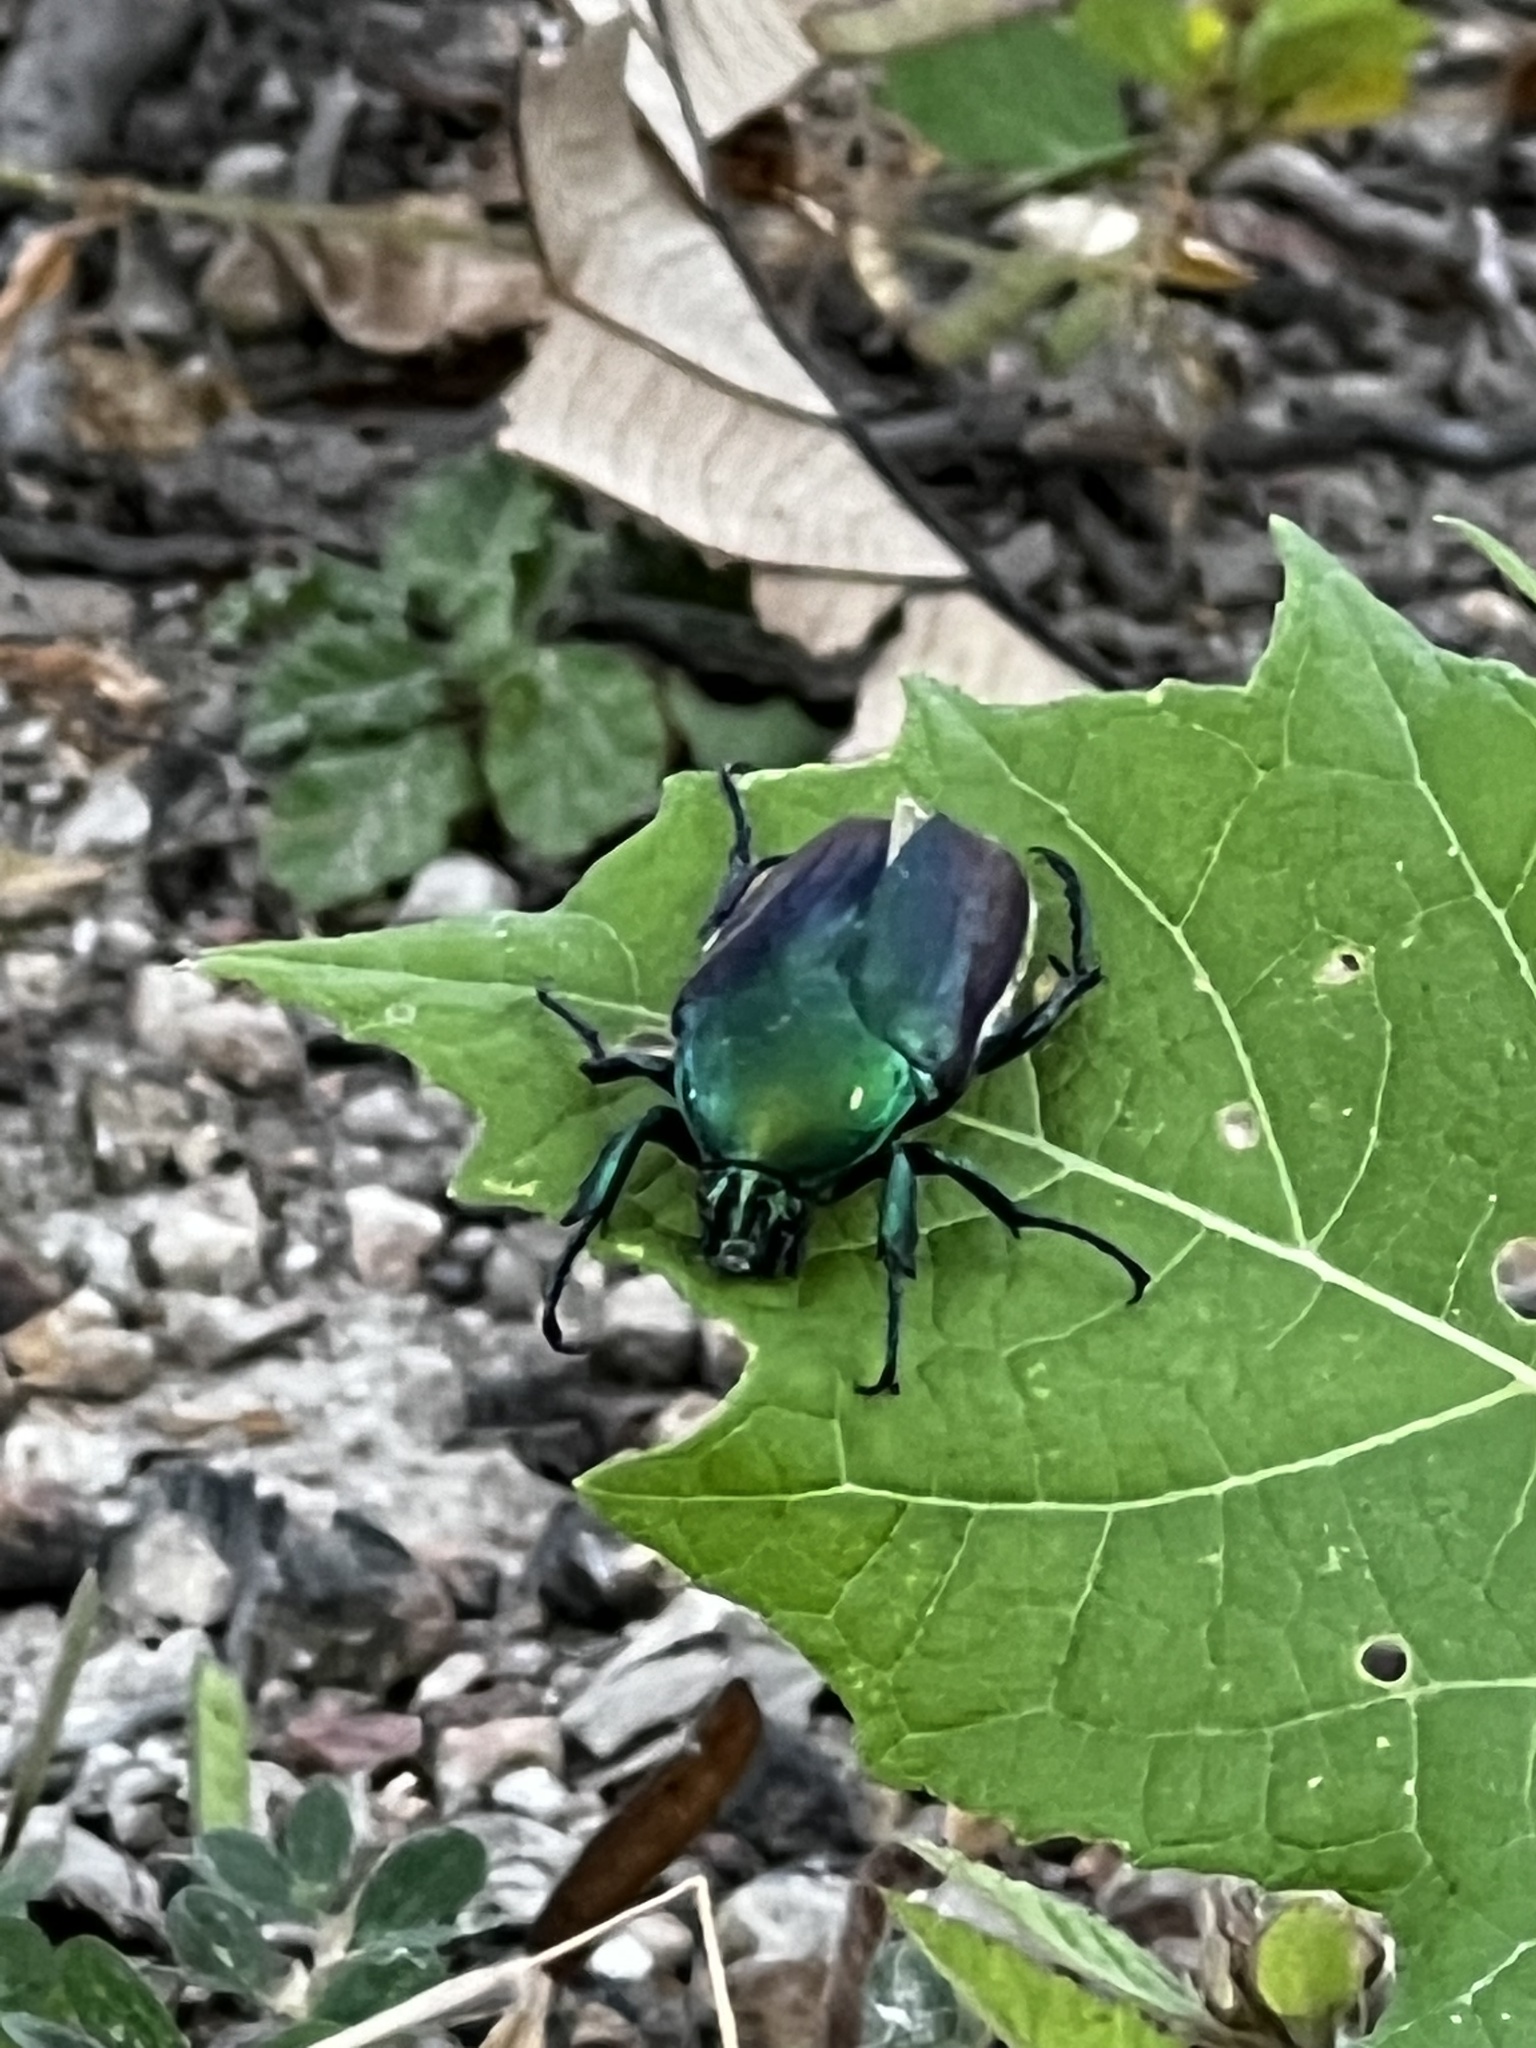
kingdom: Animalia
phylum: Arthropoda
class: Insecta
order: Coleoptera
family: Scarabaeidae
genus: Cotinis
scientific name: Cotinis laticornis
